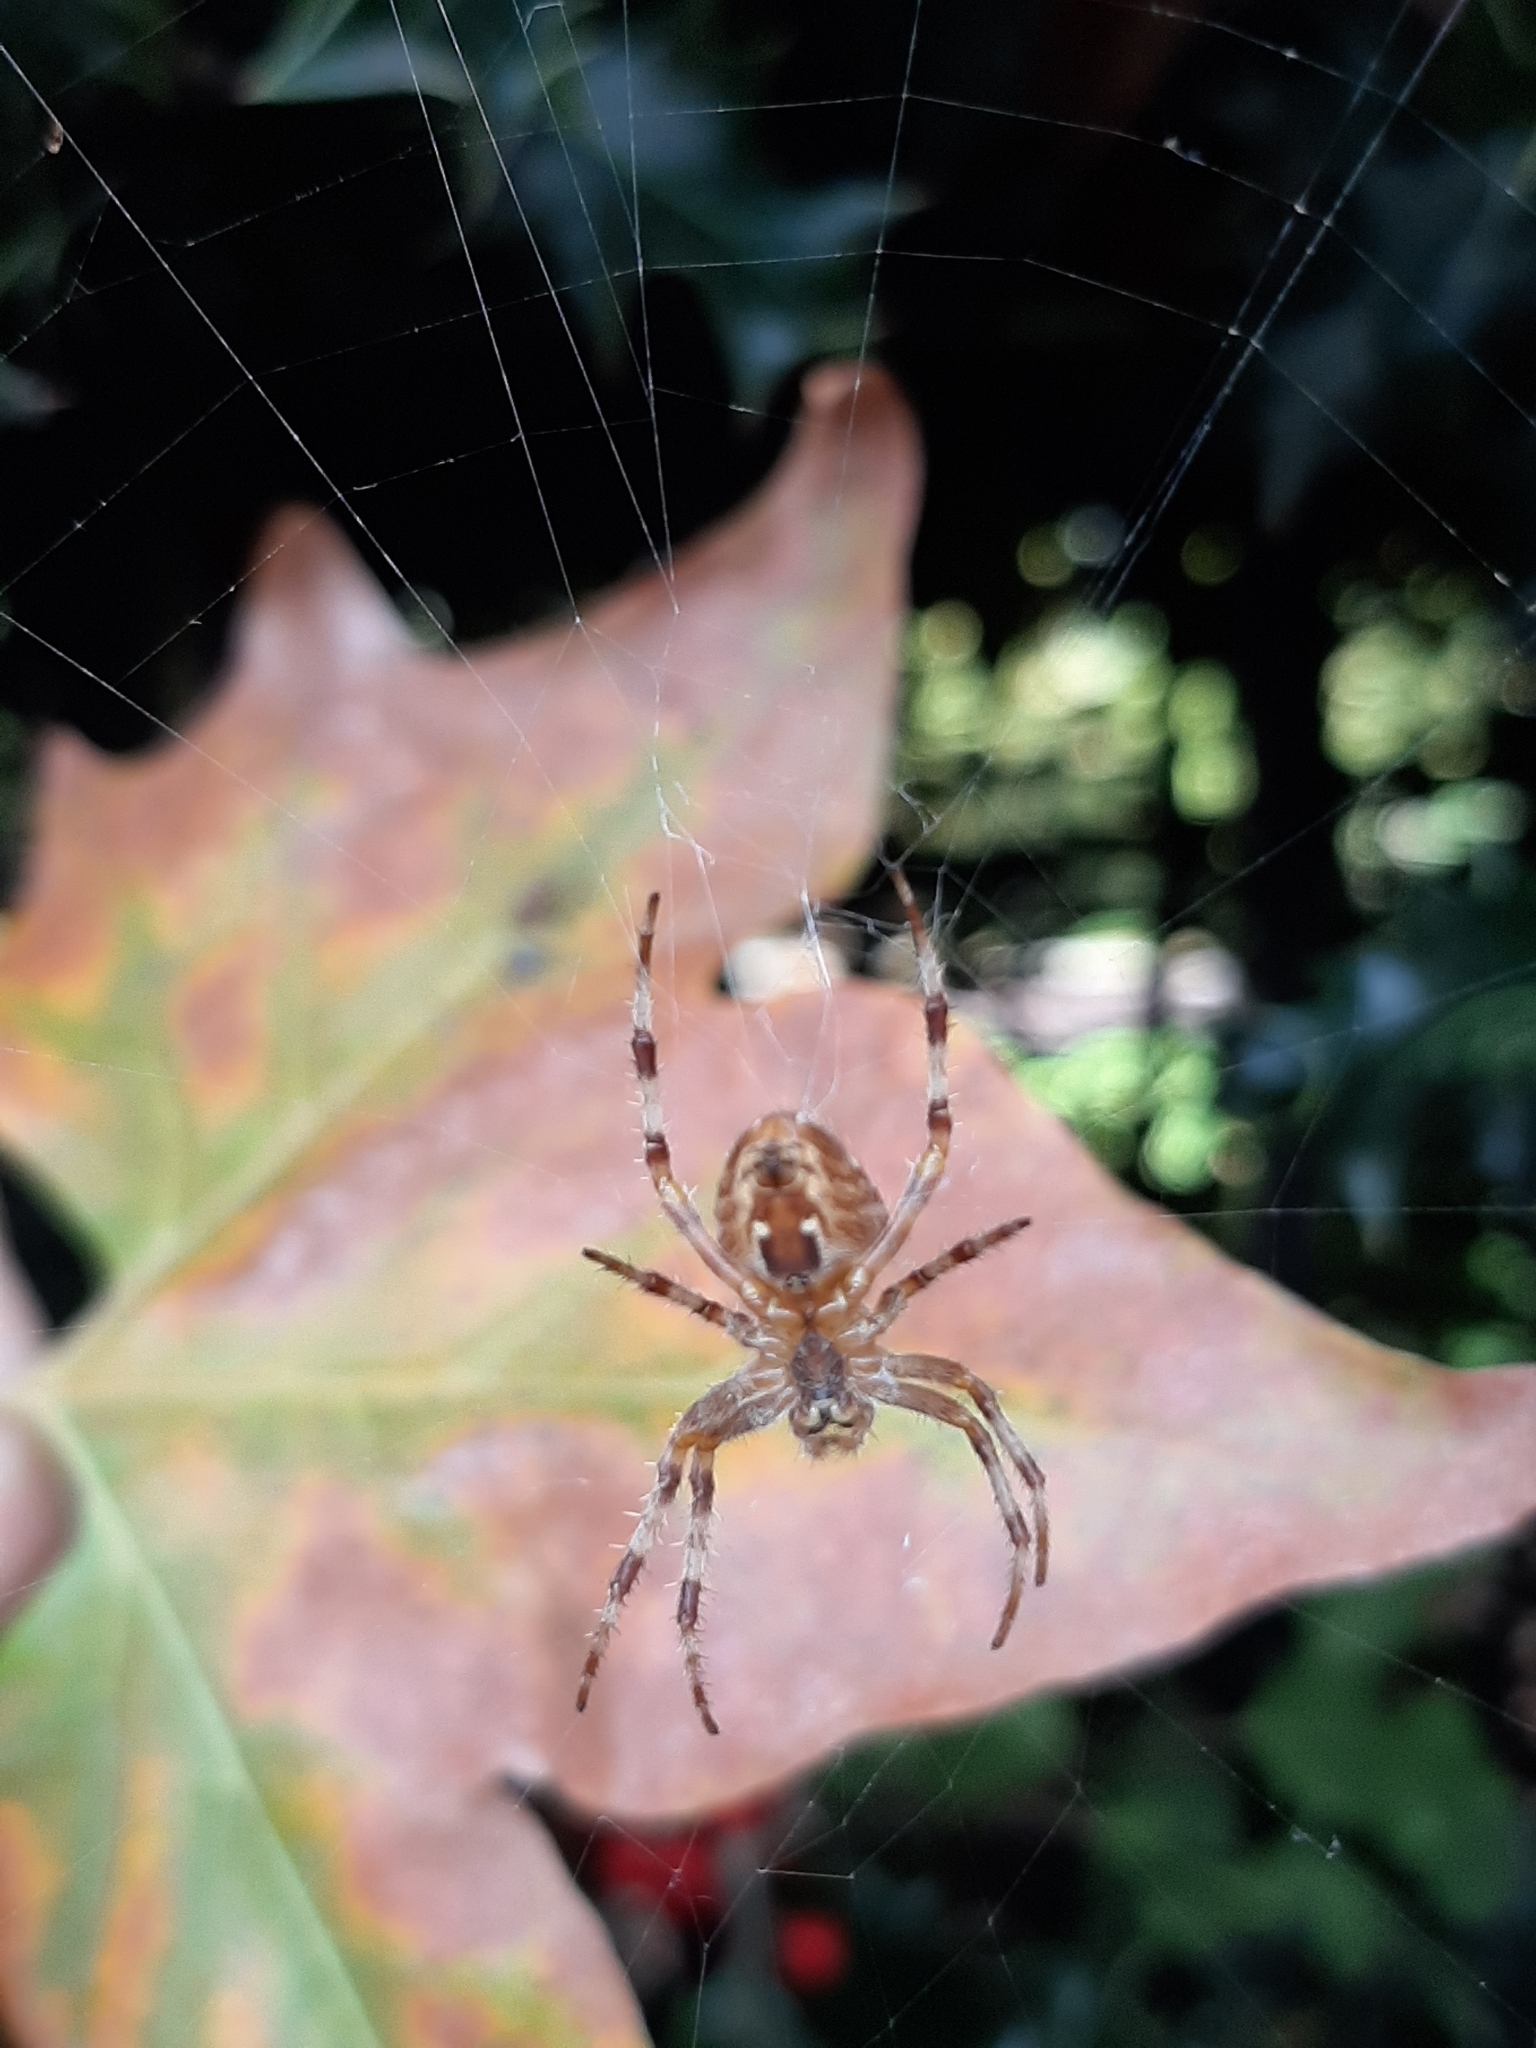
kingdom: Animalia
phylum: Arthropoda
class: Arachnida
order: Araneae
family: Araneidae
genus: Araneus
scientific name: Araneus diadematus
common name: Cross orbweaver
